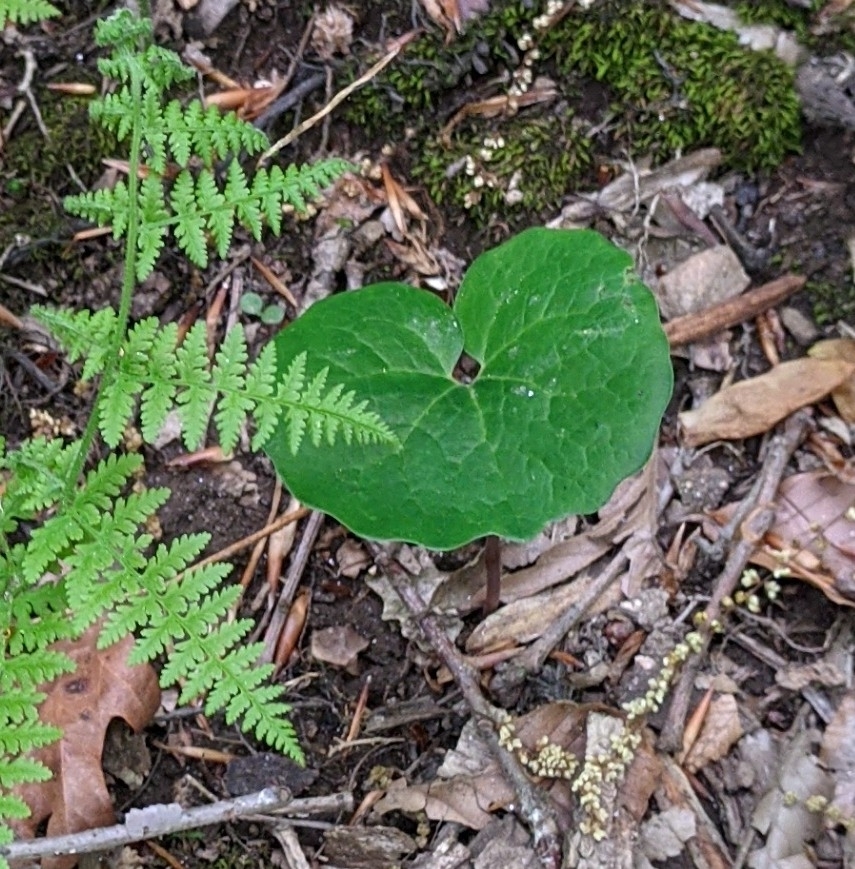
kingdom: Plantae
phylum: Tracheophyta
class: Magnoliopsida
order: Ranunculales
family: Papaveraceae
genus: Sanguinaria
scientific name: Sanguinaria canadensis
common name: Bloodroot
